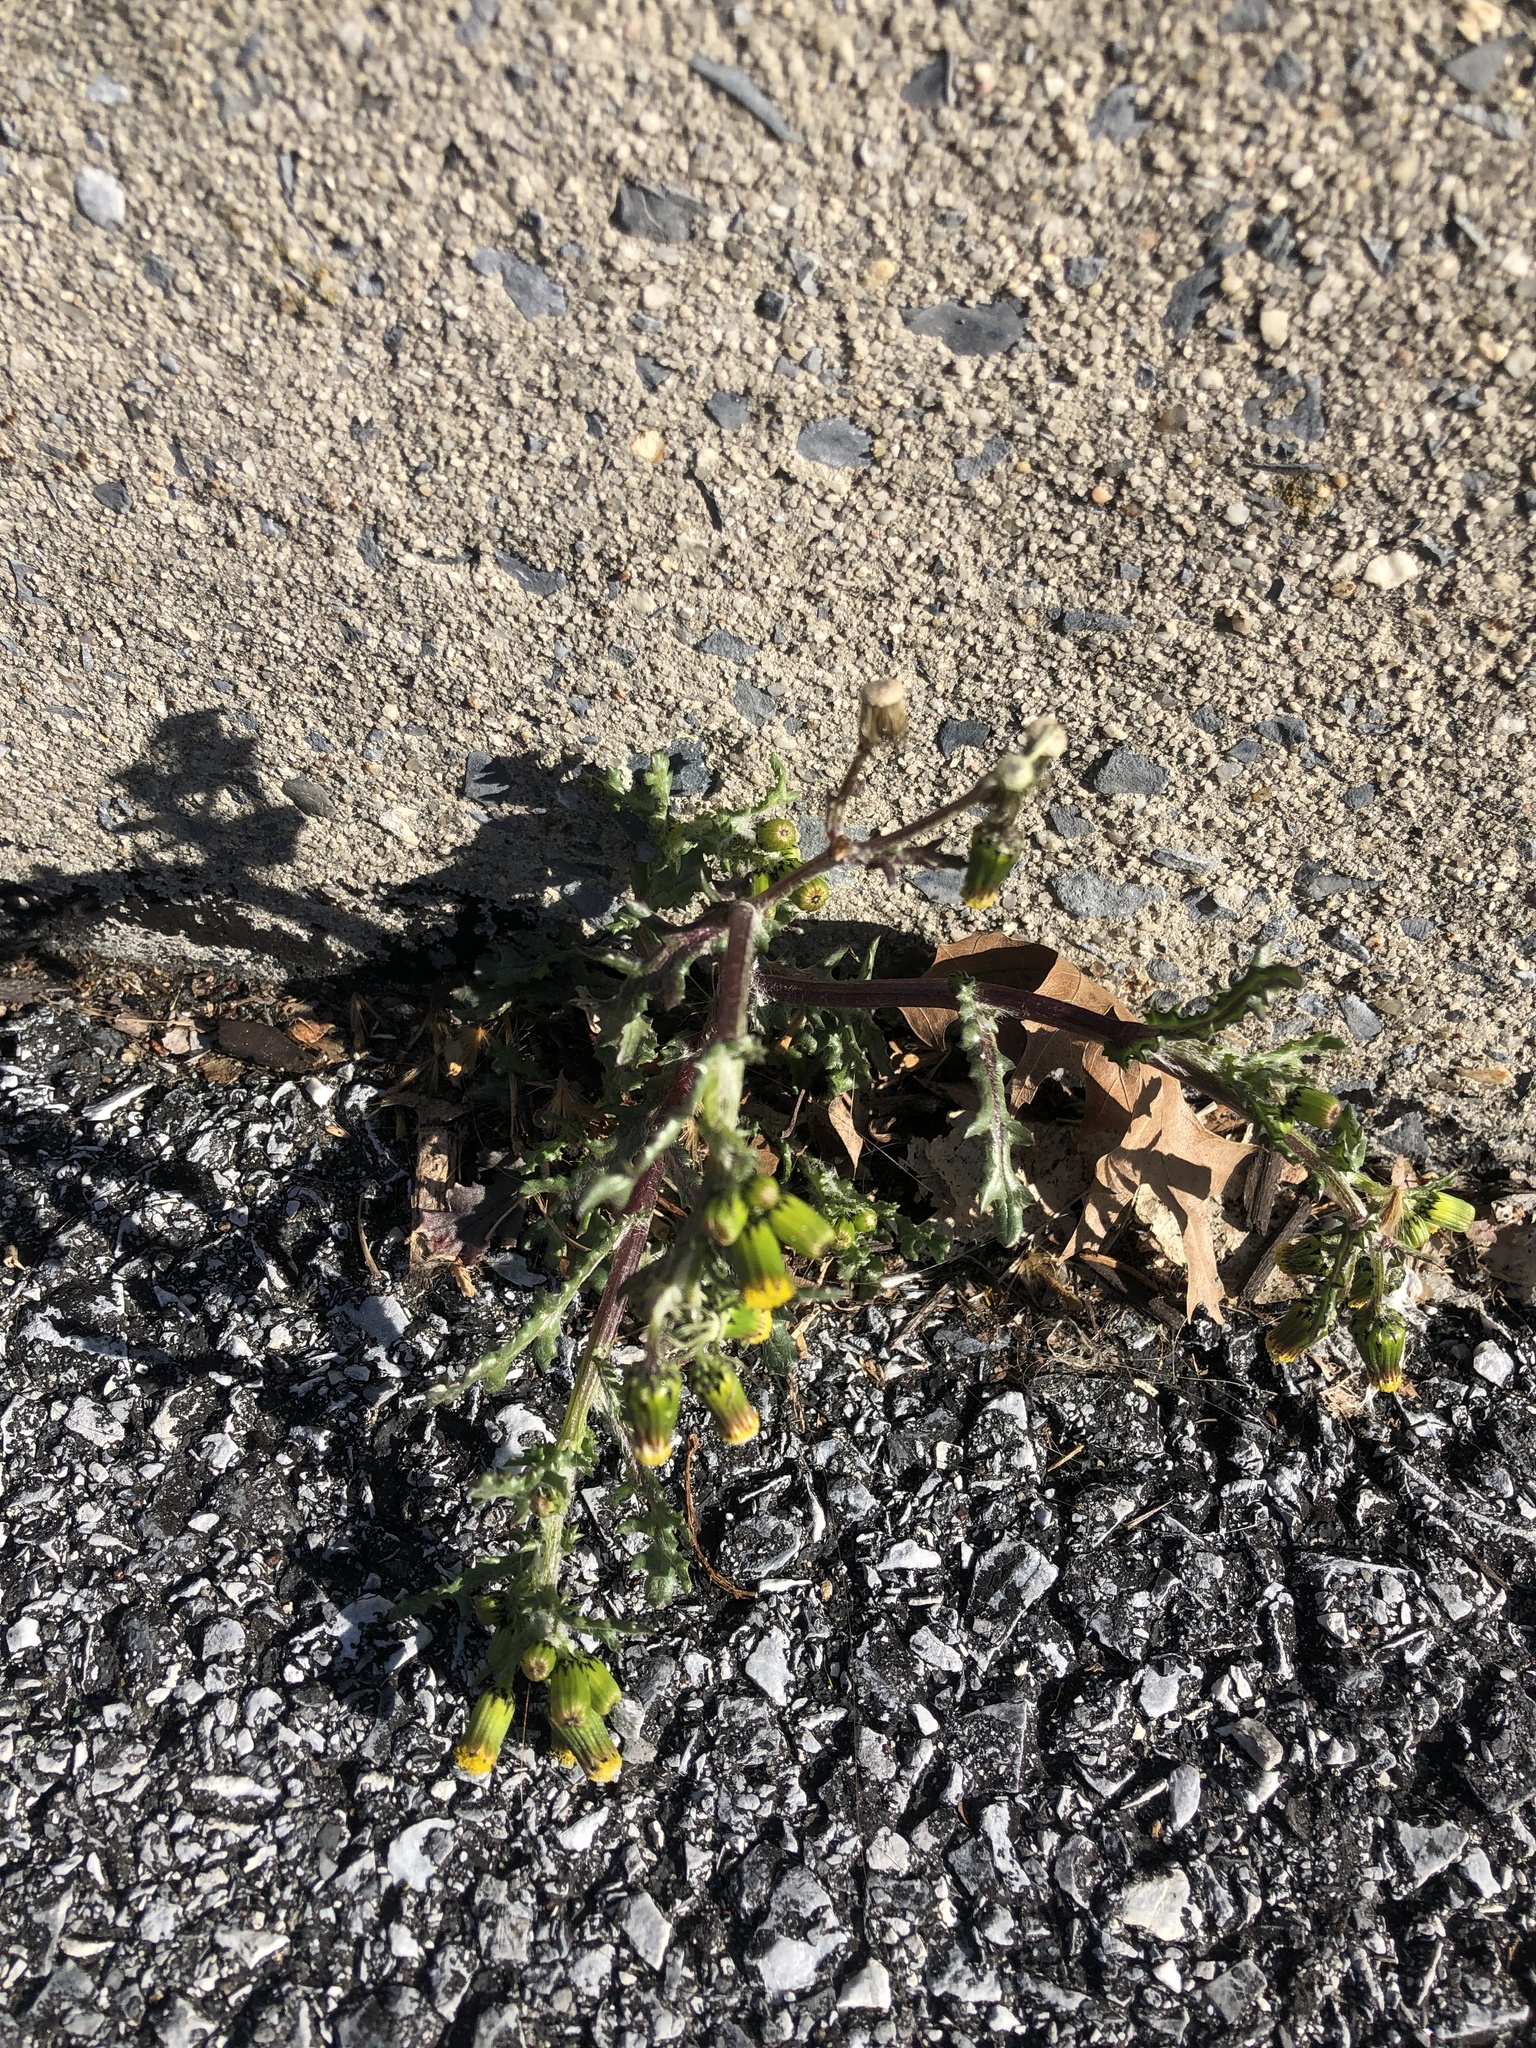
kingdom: Plantae
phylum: Tracheophyta
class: Magnoliopsida
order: Asterales
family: Asteraceae
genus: Senecio
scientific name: Senecio vulgaris
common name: Old-man-in-the-spring
